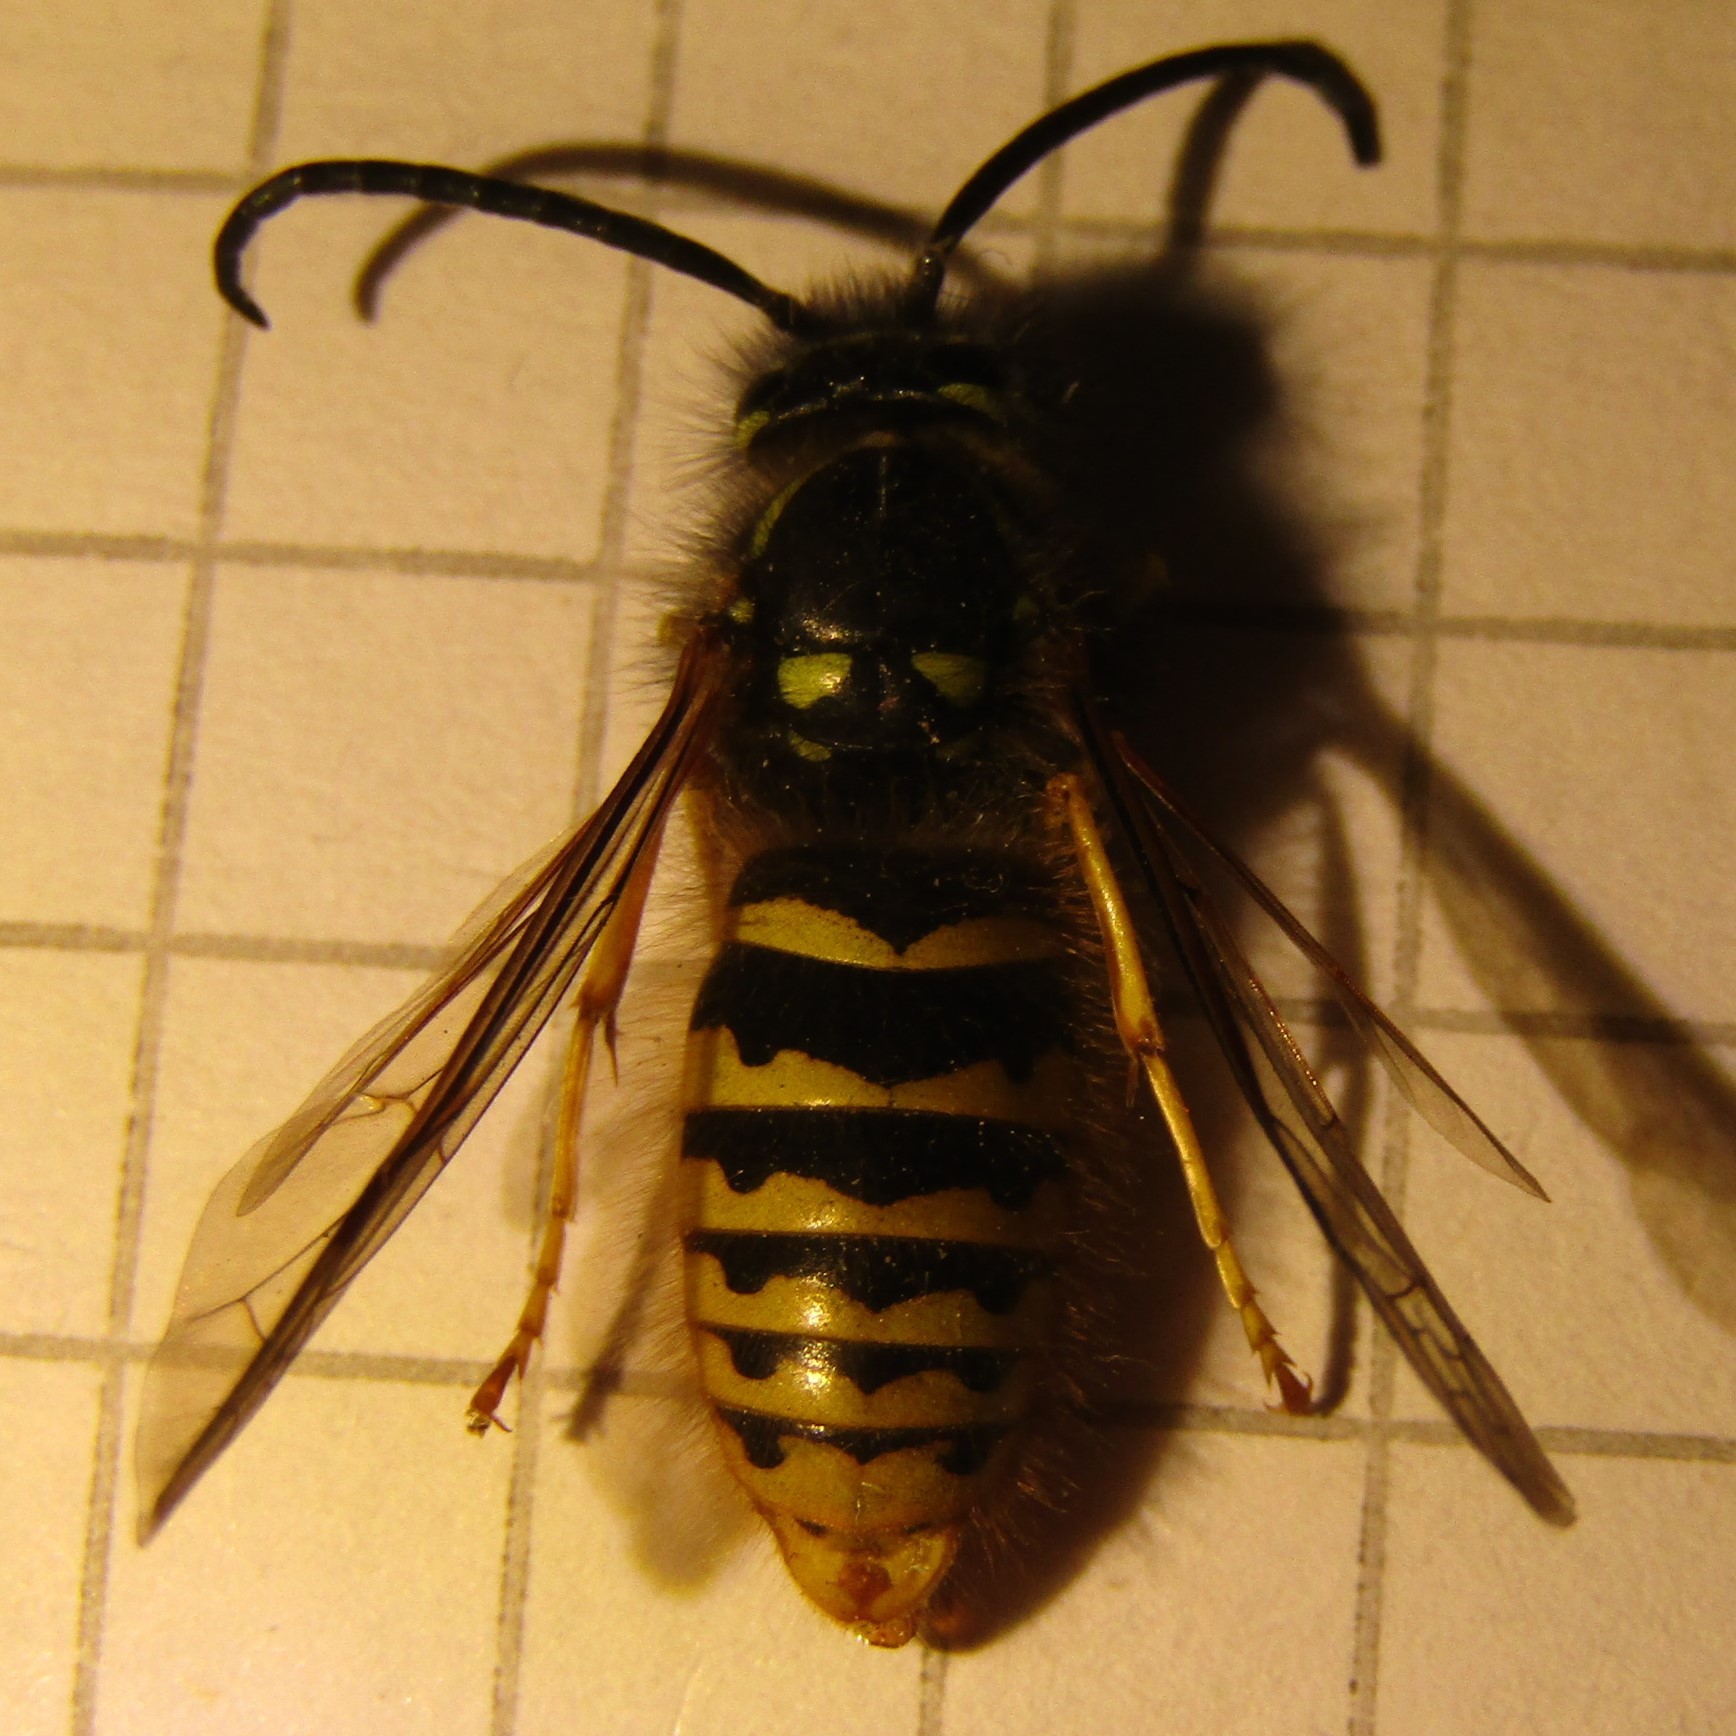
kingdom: Animalia
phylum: Arthropoda
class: Insecta
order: Hymenoptera
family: Vespidae
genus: Vespula
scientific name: Vespula vulgaris
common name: Common wasp
